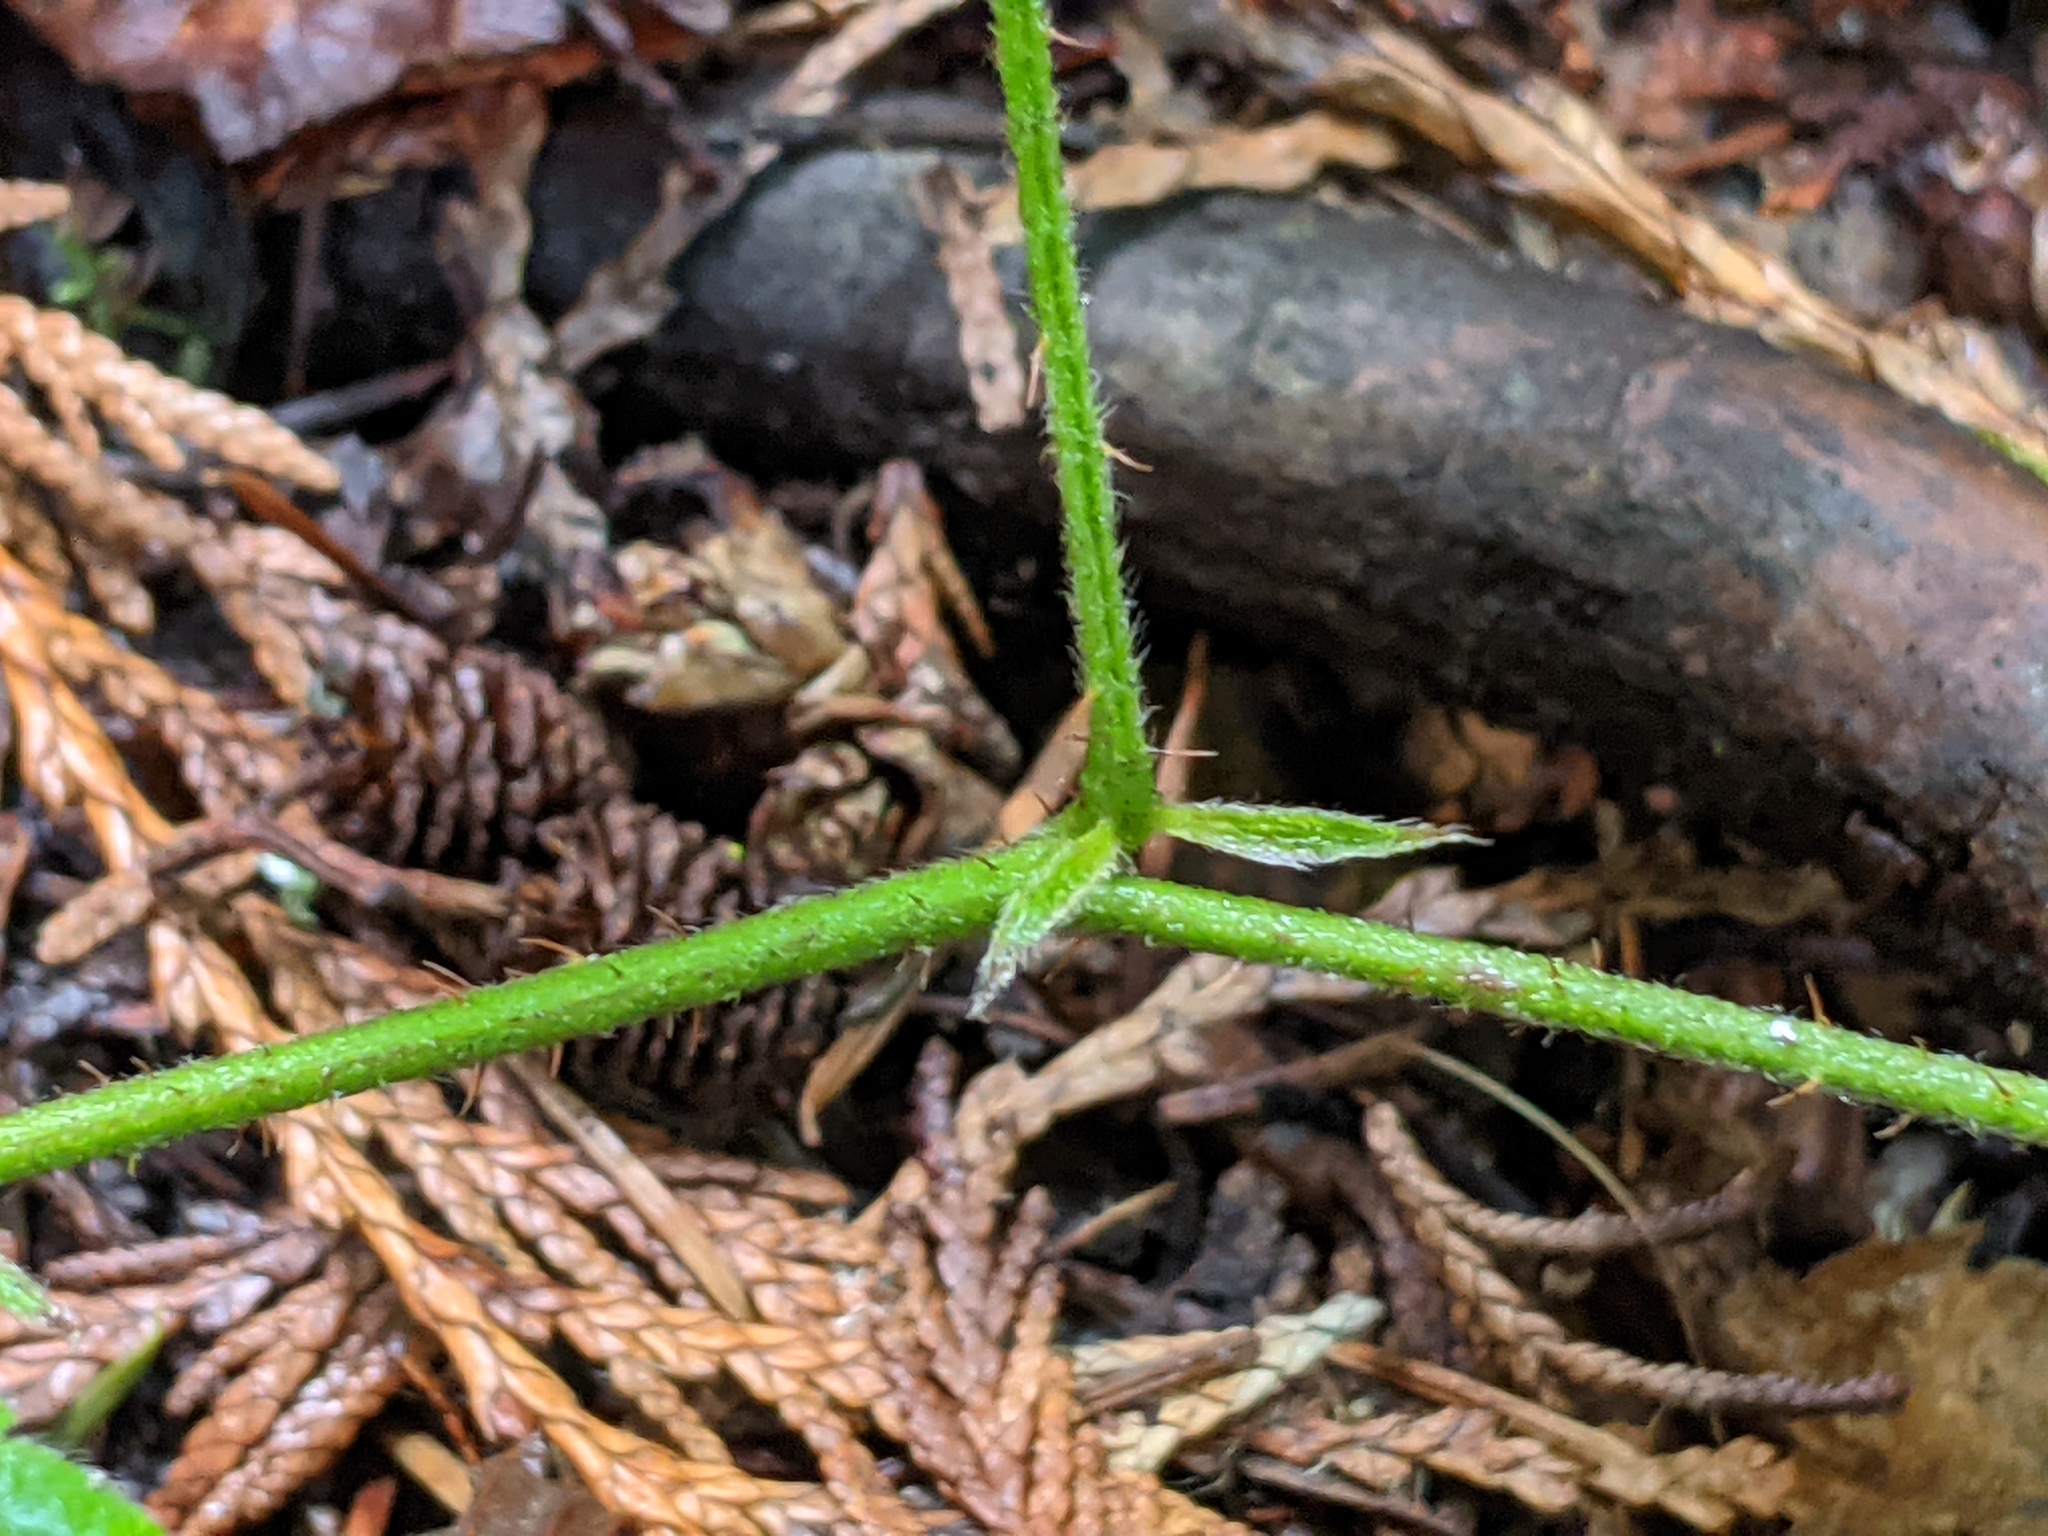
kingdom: Plantae
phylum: Tracheophyta
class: Magnoliopsida
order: Rosales
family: Rosaceae
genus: Rubus
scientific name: Rubus ursinus
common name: Pacific blackberry
